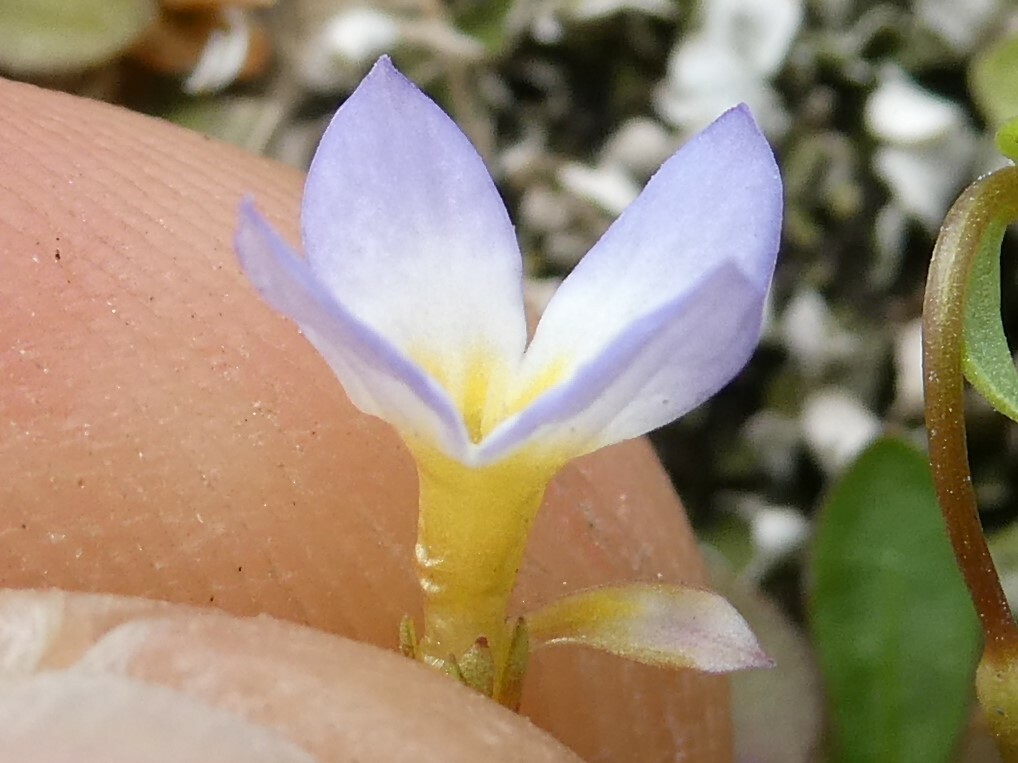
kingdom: Plantae
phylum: Tracheophyta
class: Magnoliopsida
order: Gentianales
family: Rubiaceae
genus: Houstonia
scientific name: Houstonia caerulea
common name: Bluets
